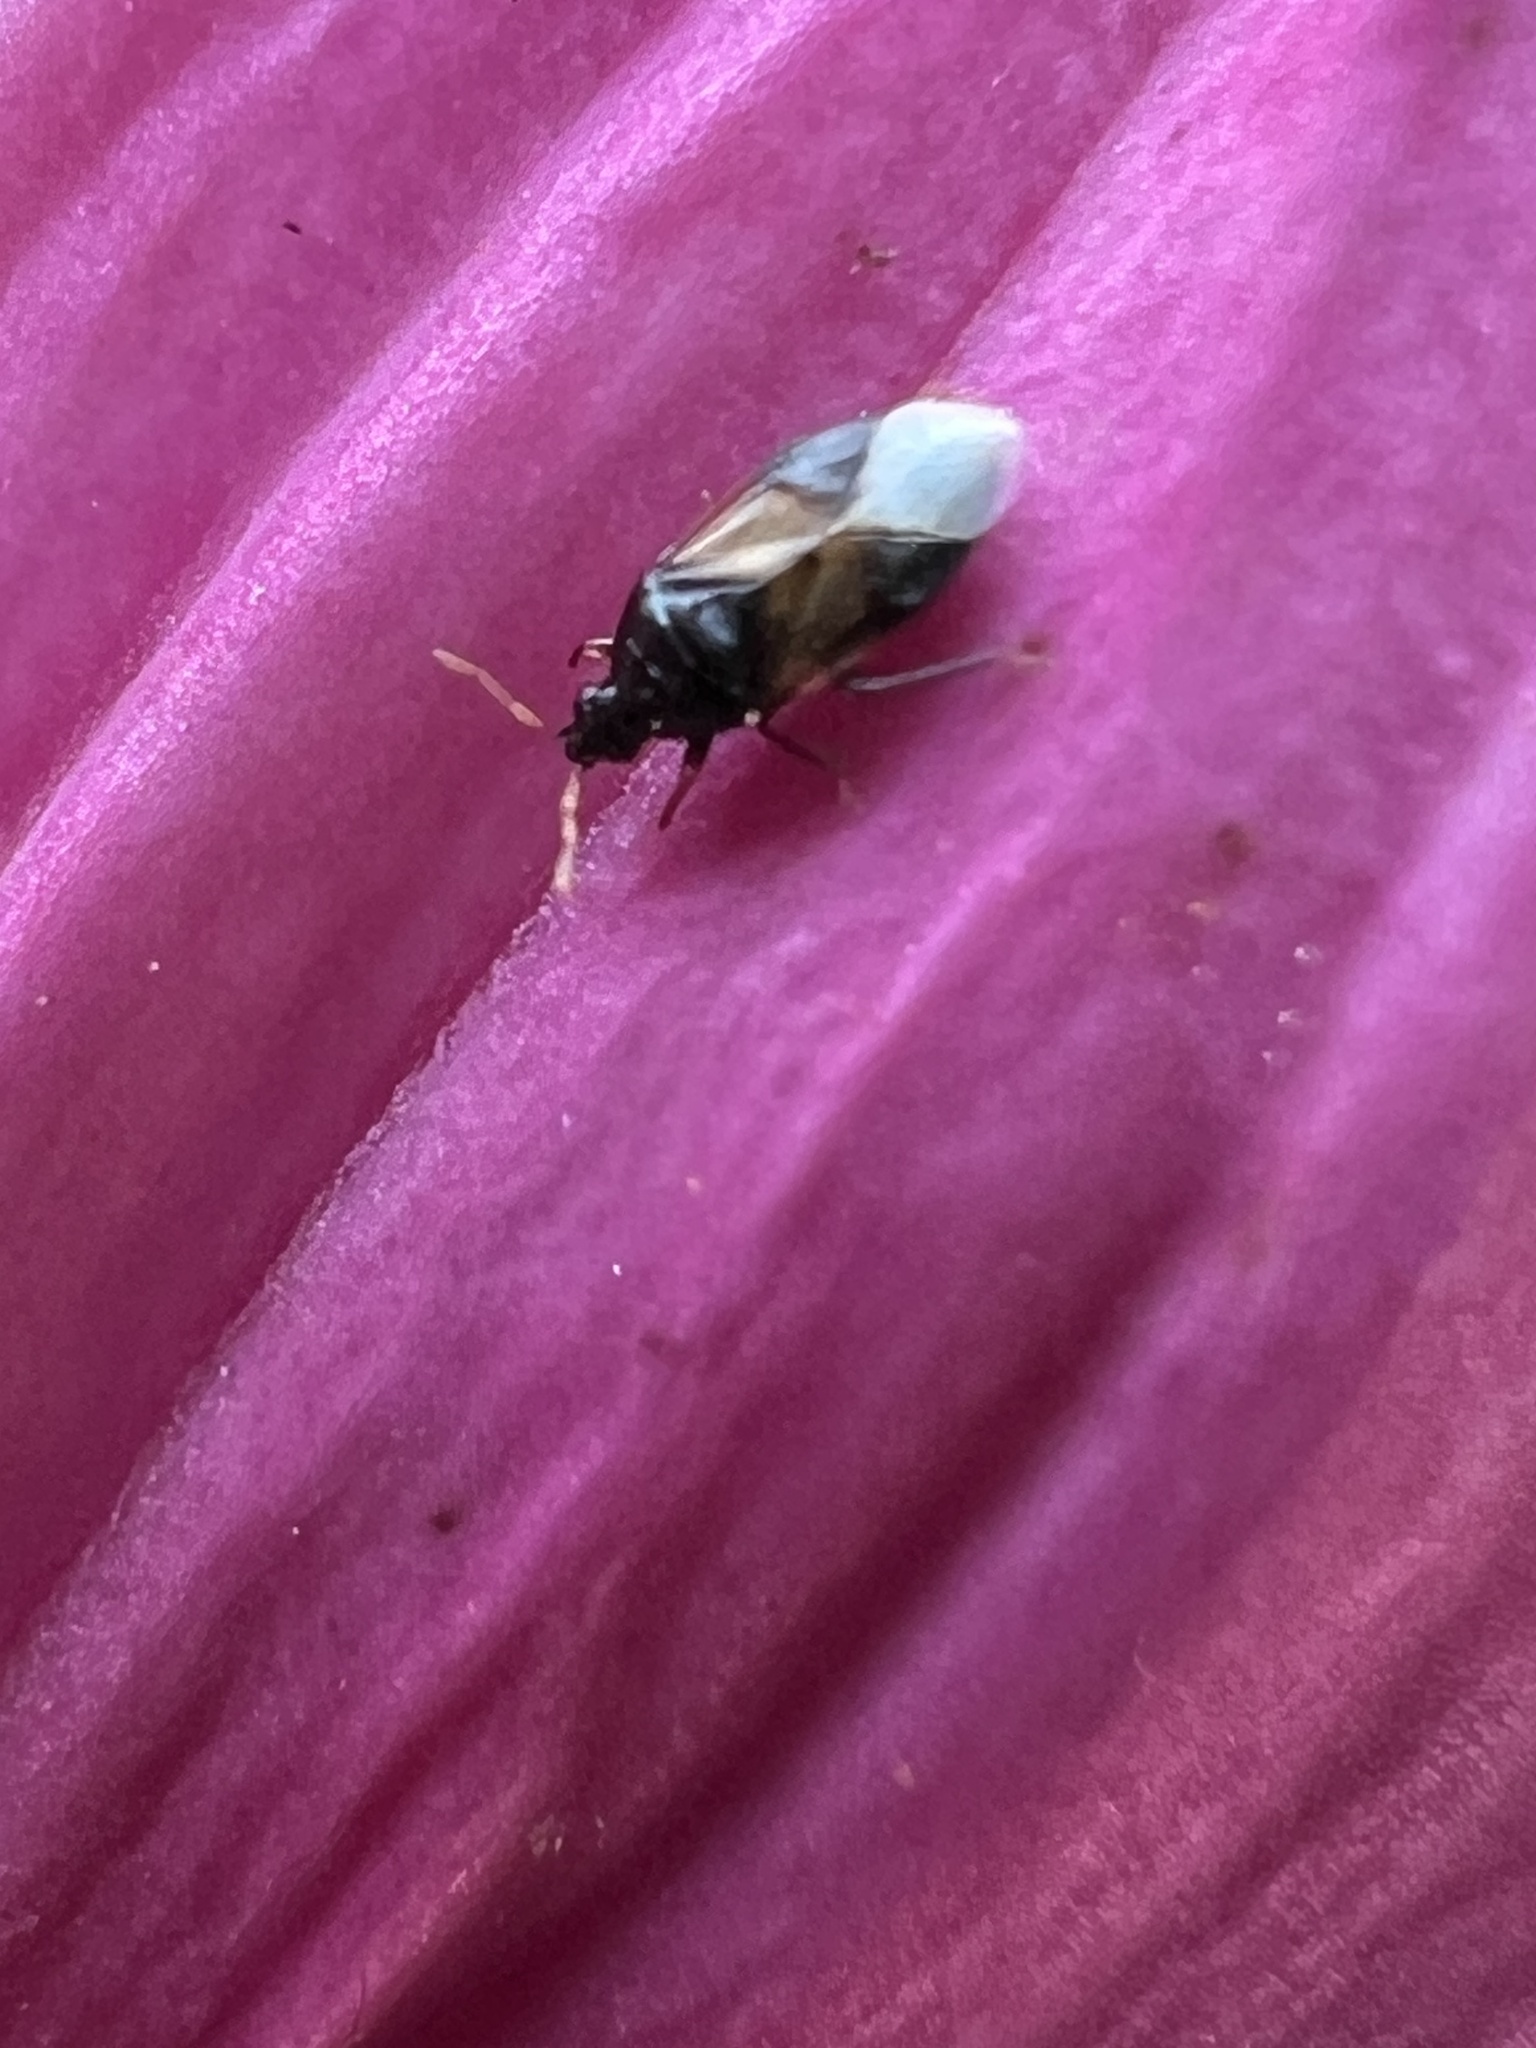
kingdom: Animalia
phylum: Arthropoda
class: Insecta
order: Hemiptera
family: Anthocoridae
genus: Orius
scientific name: Orius insidiosus
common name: Insidious flower bug
